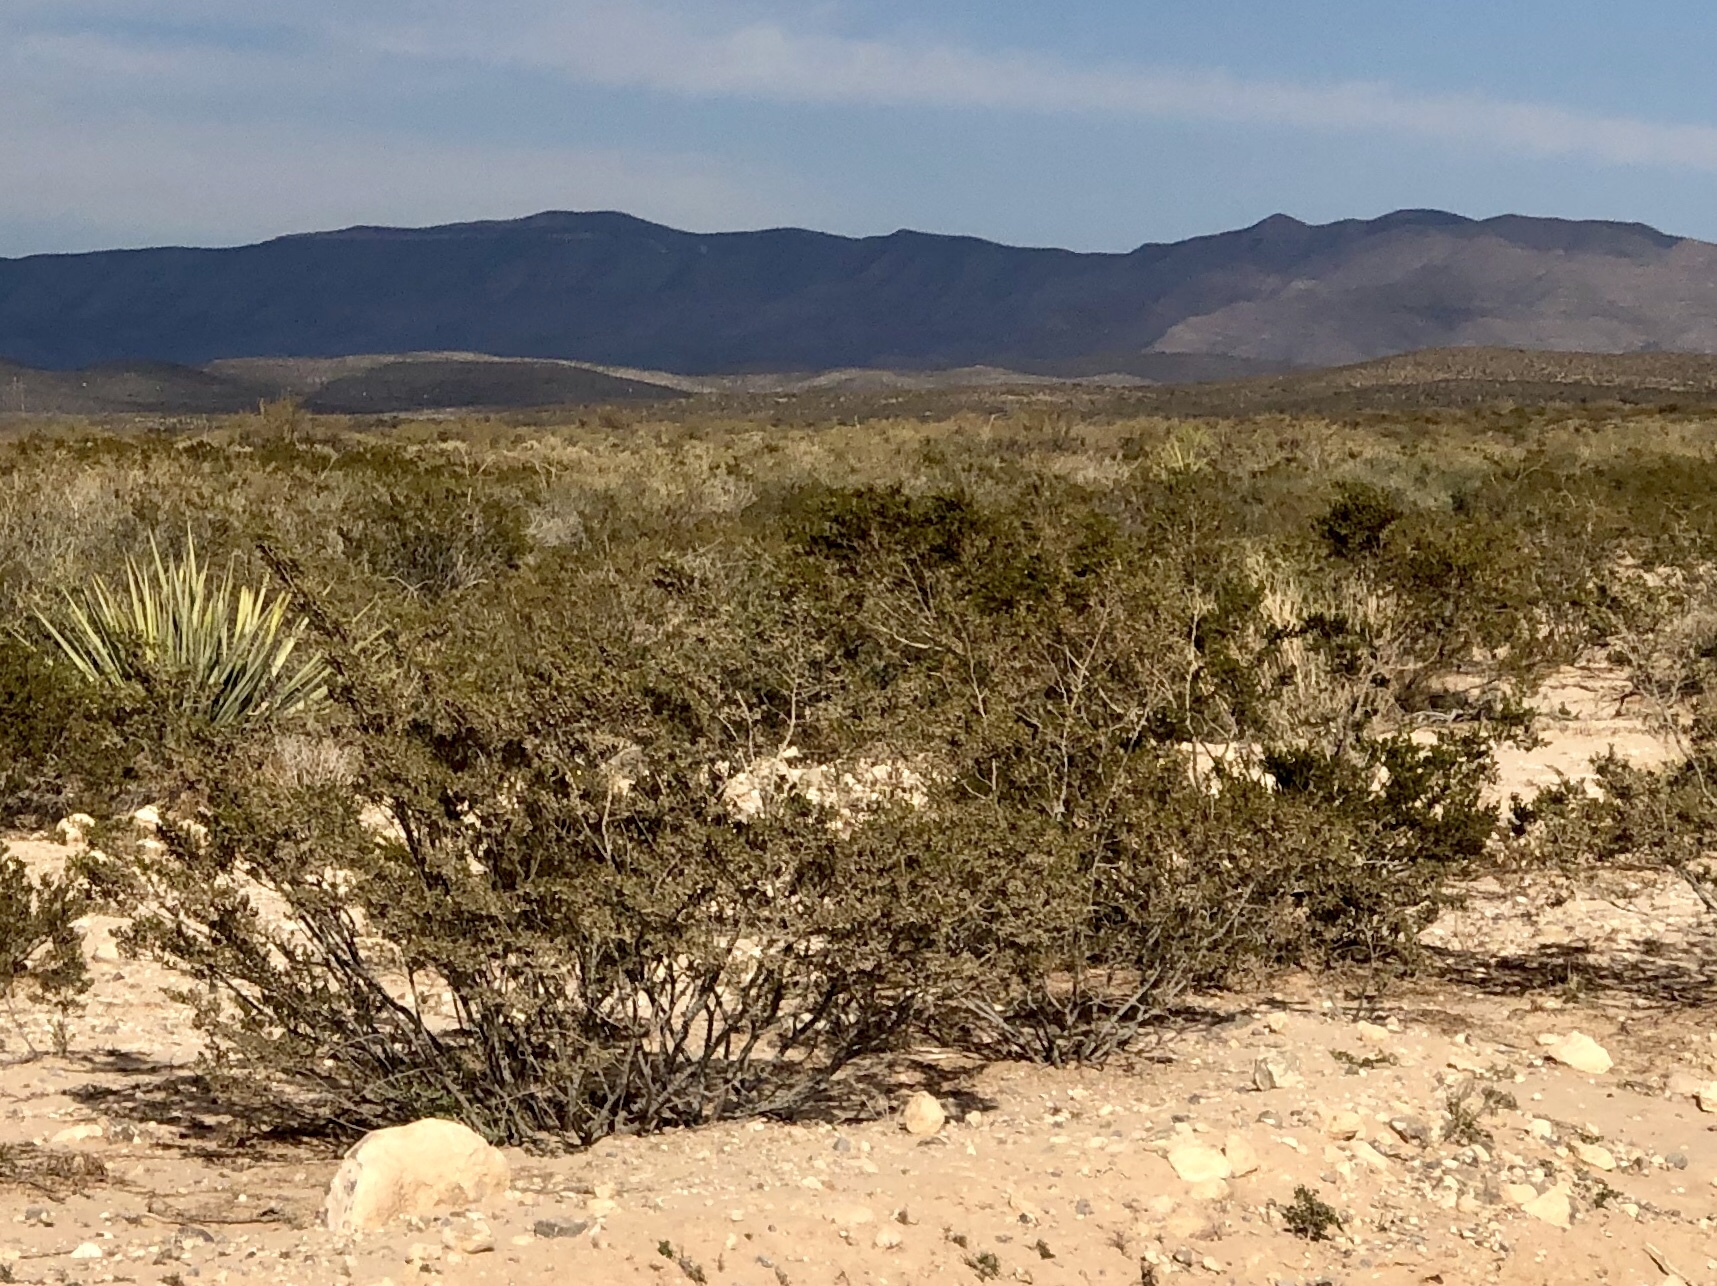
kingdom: Plantae
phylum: Tracheophyta
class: Magnoliopsida
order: Zygophyllales
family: Zygophyllaceae
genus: Larrea
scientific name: Larrea tridentata
